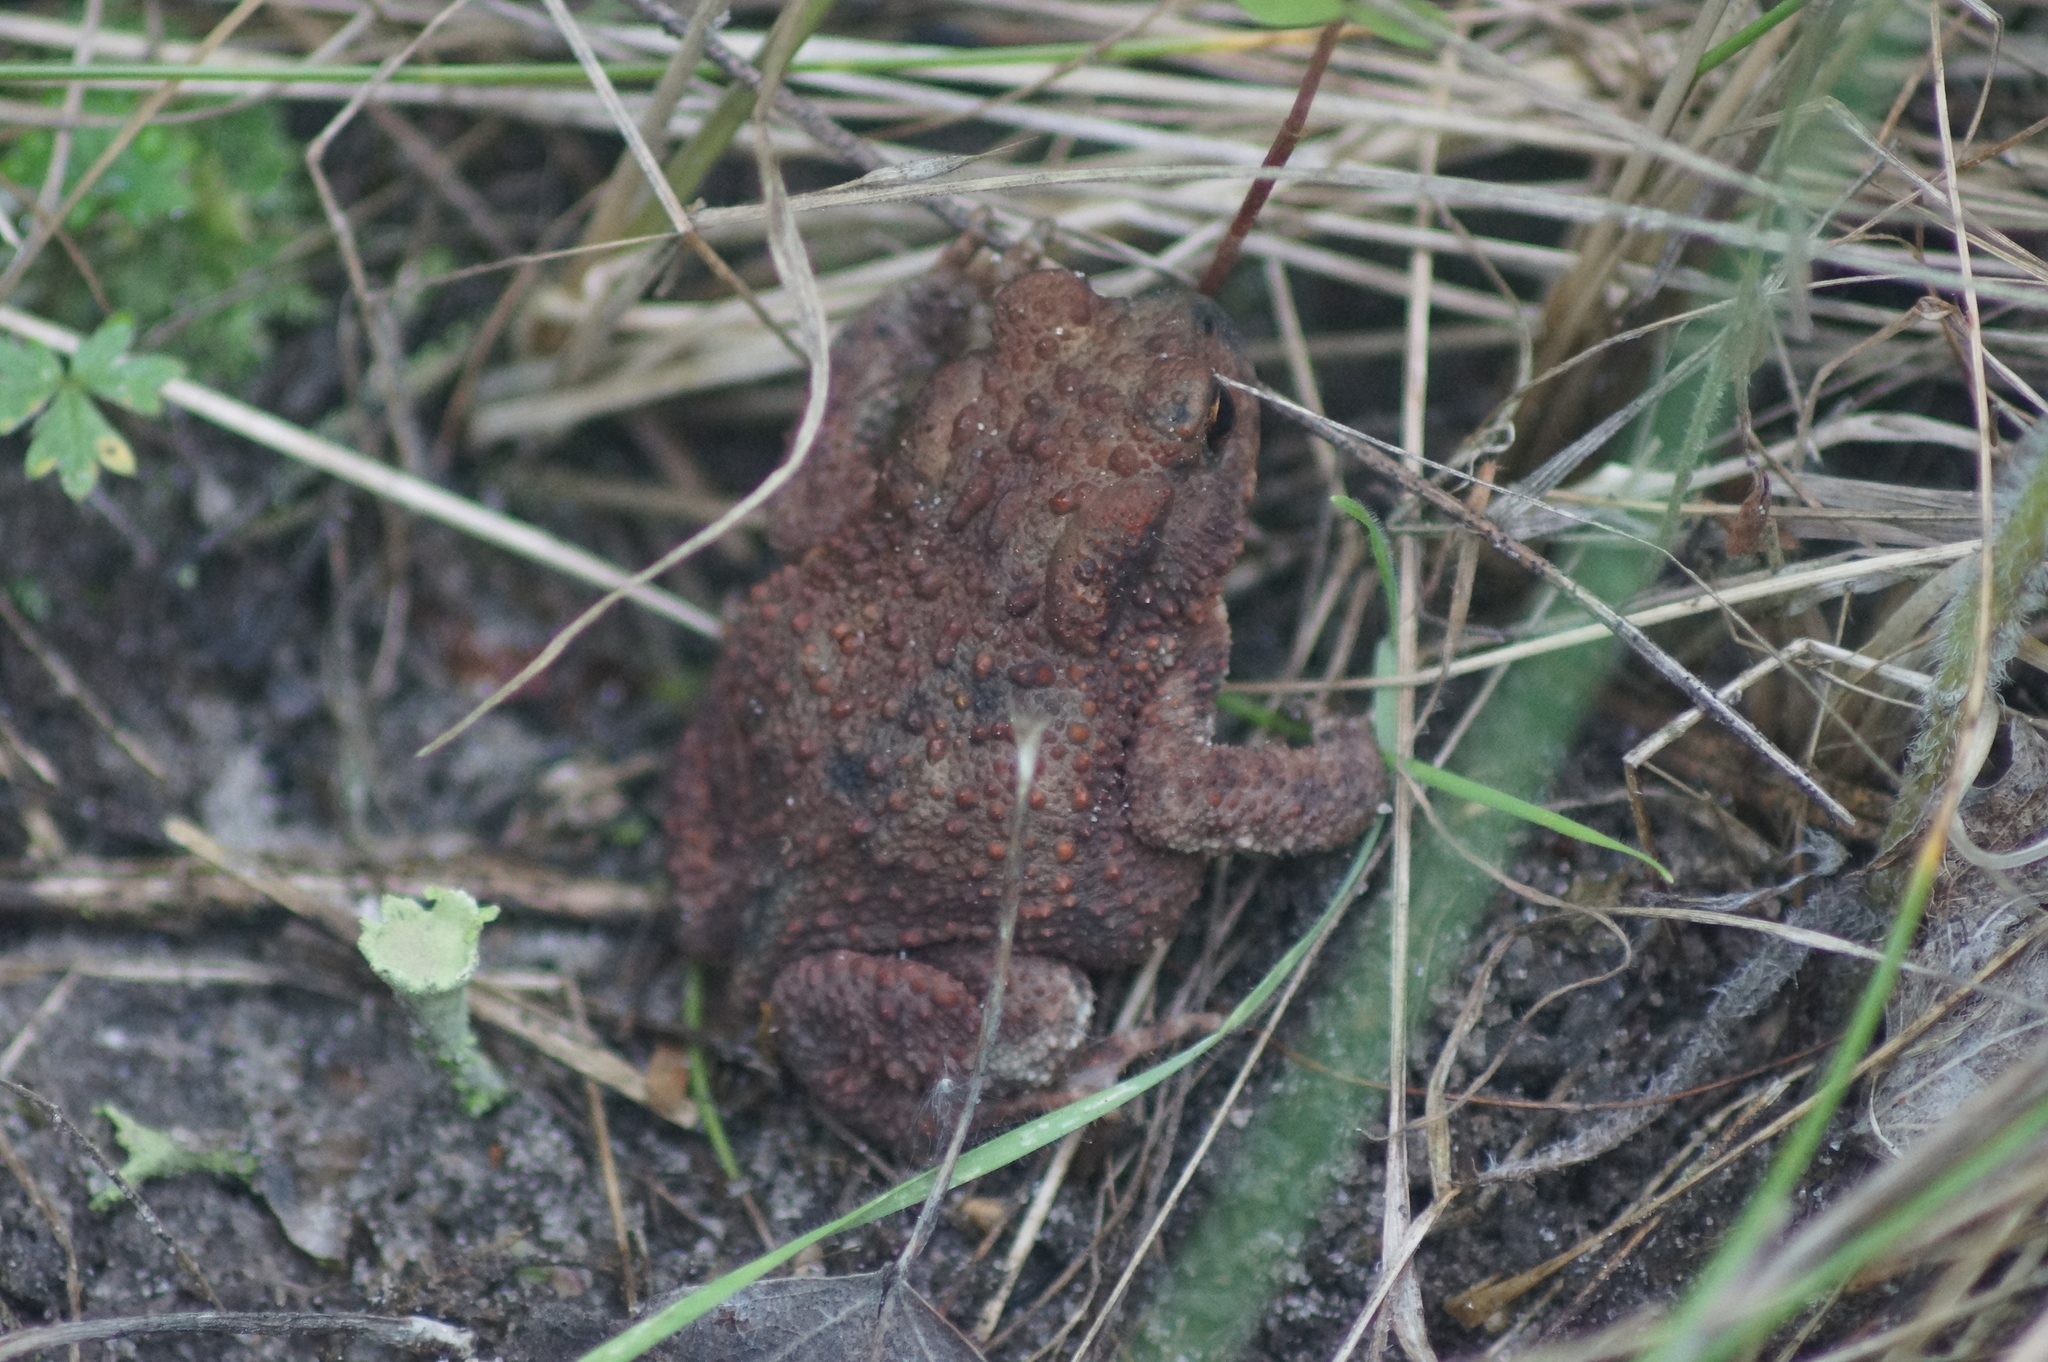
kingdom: Animalia
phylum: Chordata
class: Amphibia
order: Anura
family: Bufonidae
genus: Bufo
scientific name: Bufo bufo
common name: Common toad
